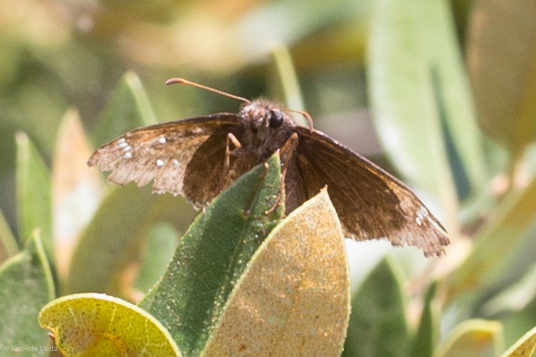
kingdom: Animalia
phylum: Arthropoda
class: Insecta
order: Lepidoptera
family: Hesperiidae
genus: Erynnis
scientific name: Erynnis propertius
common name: Propertius duskywing
